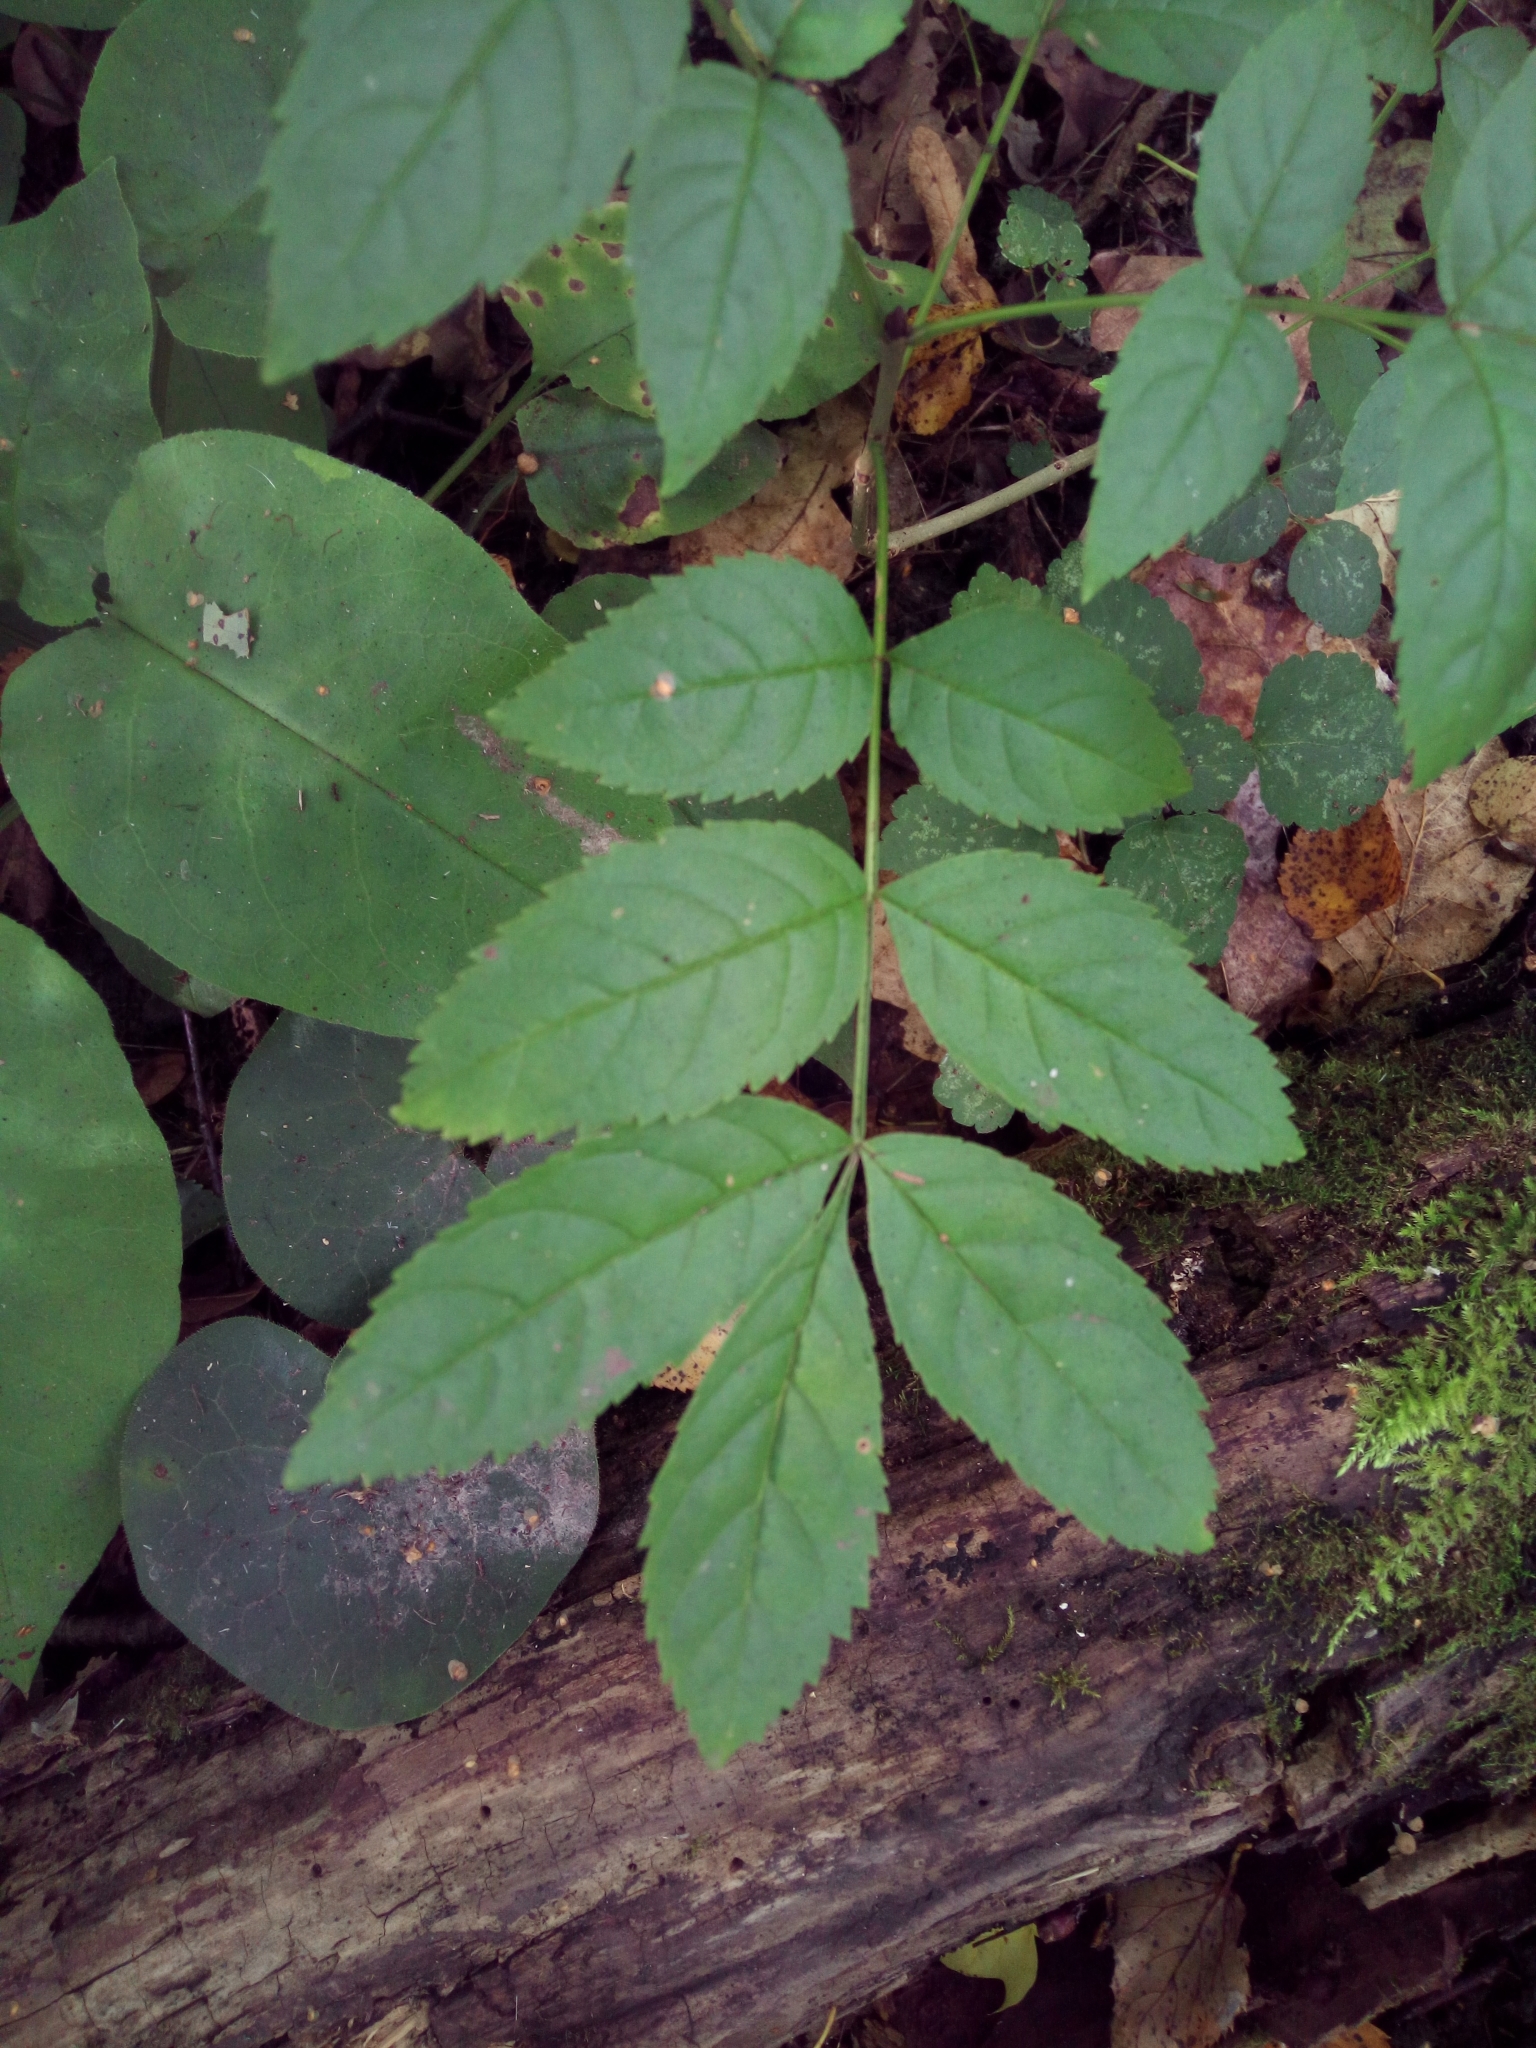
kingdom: Plantae
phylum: Tracheophyta
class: Magnoliopsida
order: Lamiales
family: Oleaceae
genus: Fraxinus
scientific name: Fraxinus excelsior
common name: European ash
